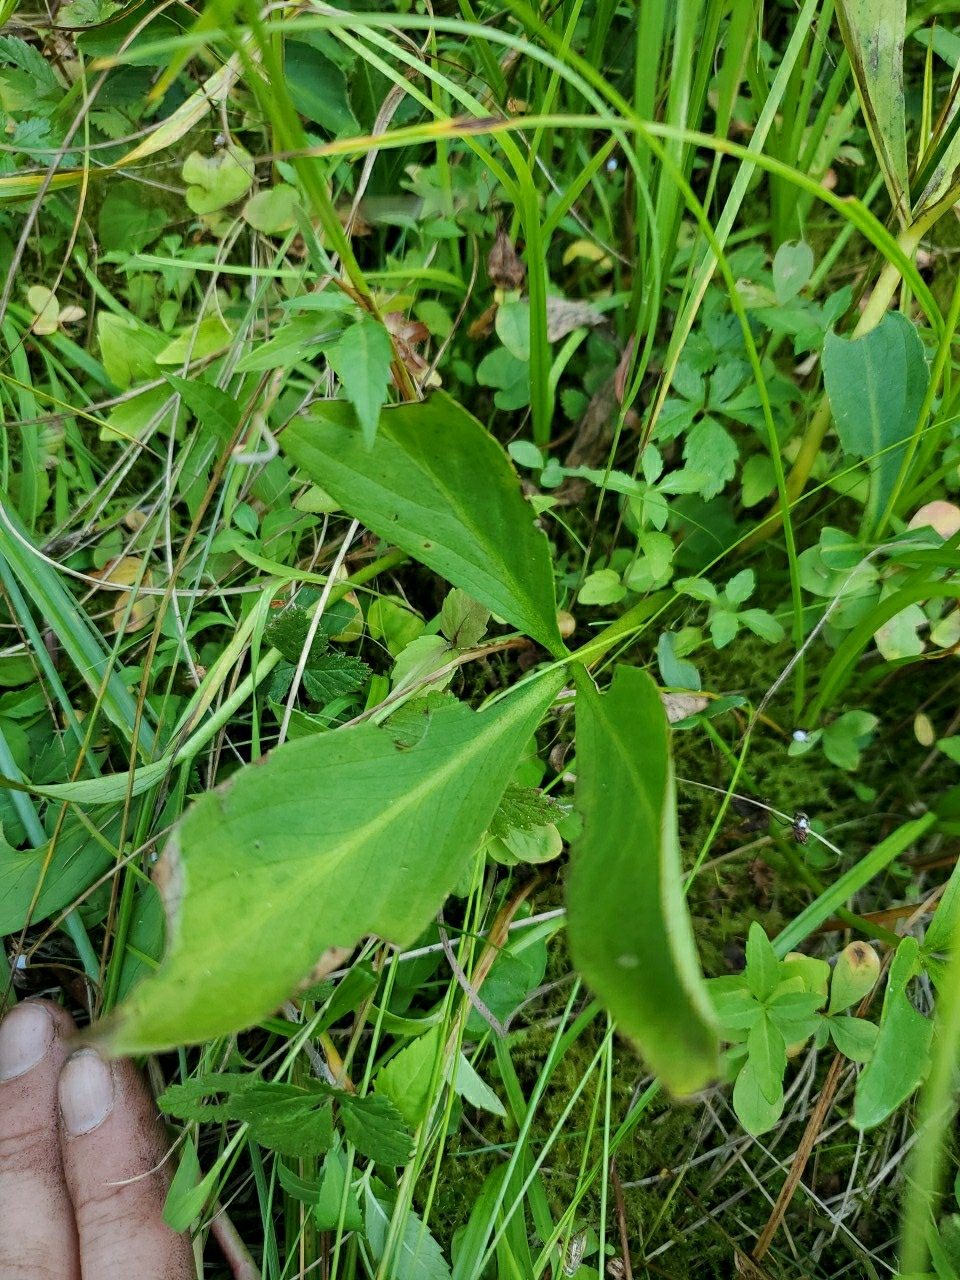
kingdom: Plantae
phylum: Tracheophyta
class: Magnoliopsida
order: Asterales
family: Menyanthaceae
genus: Menyanthes
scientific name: Menyanthes trifoliata
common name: Bogbean
